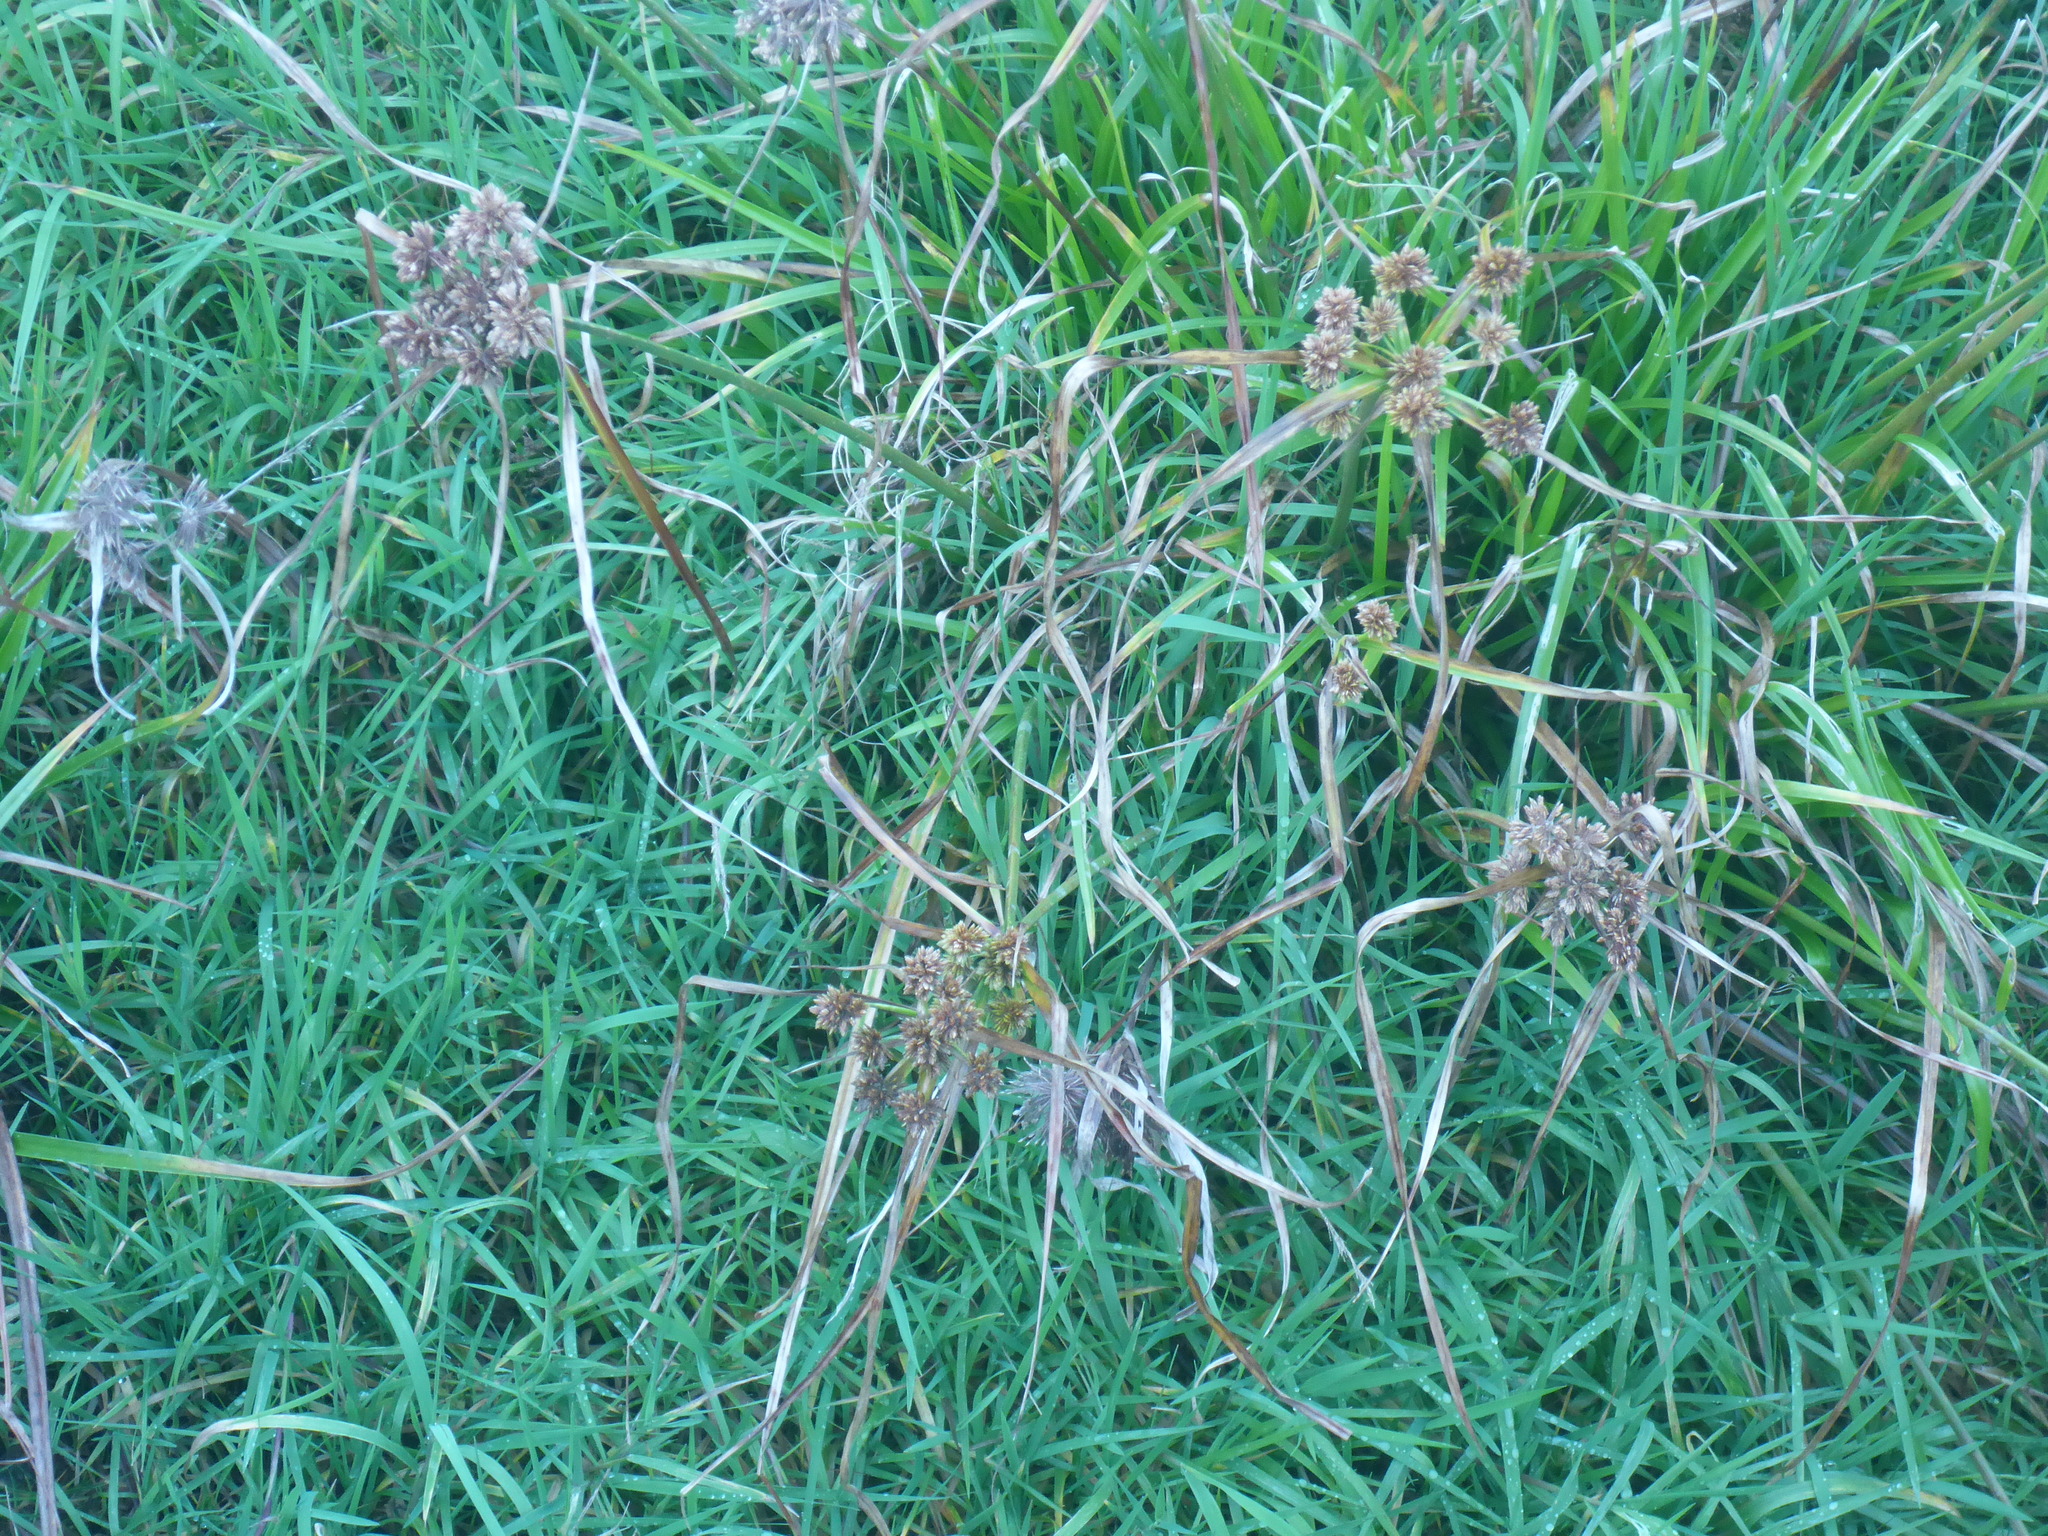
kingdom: Plantae
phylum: Tracheophyta
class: Liliopsida
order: Poales
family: Cyperaceae
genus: Cyperus
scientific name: Cyperus eragrostis
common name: Tall flatsedge
